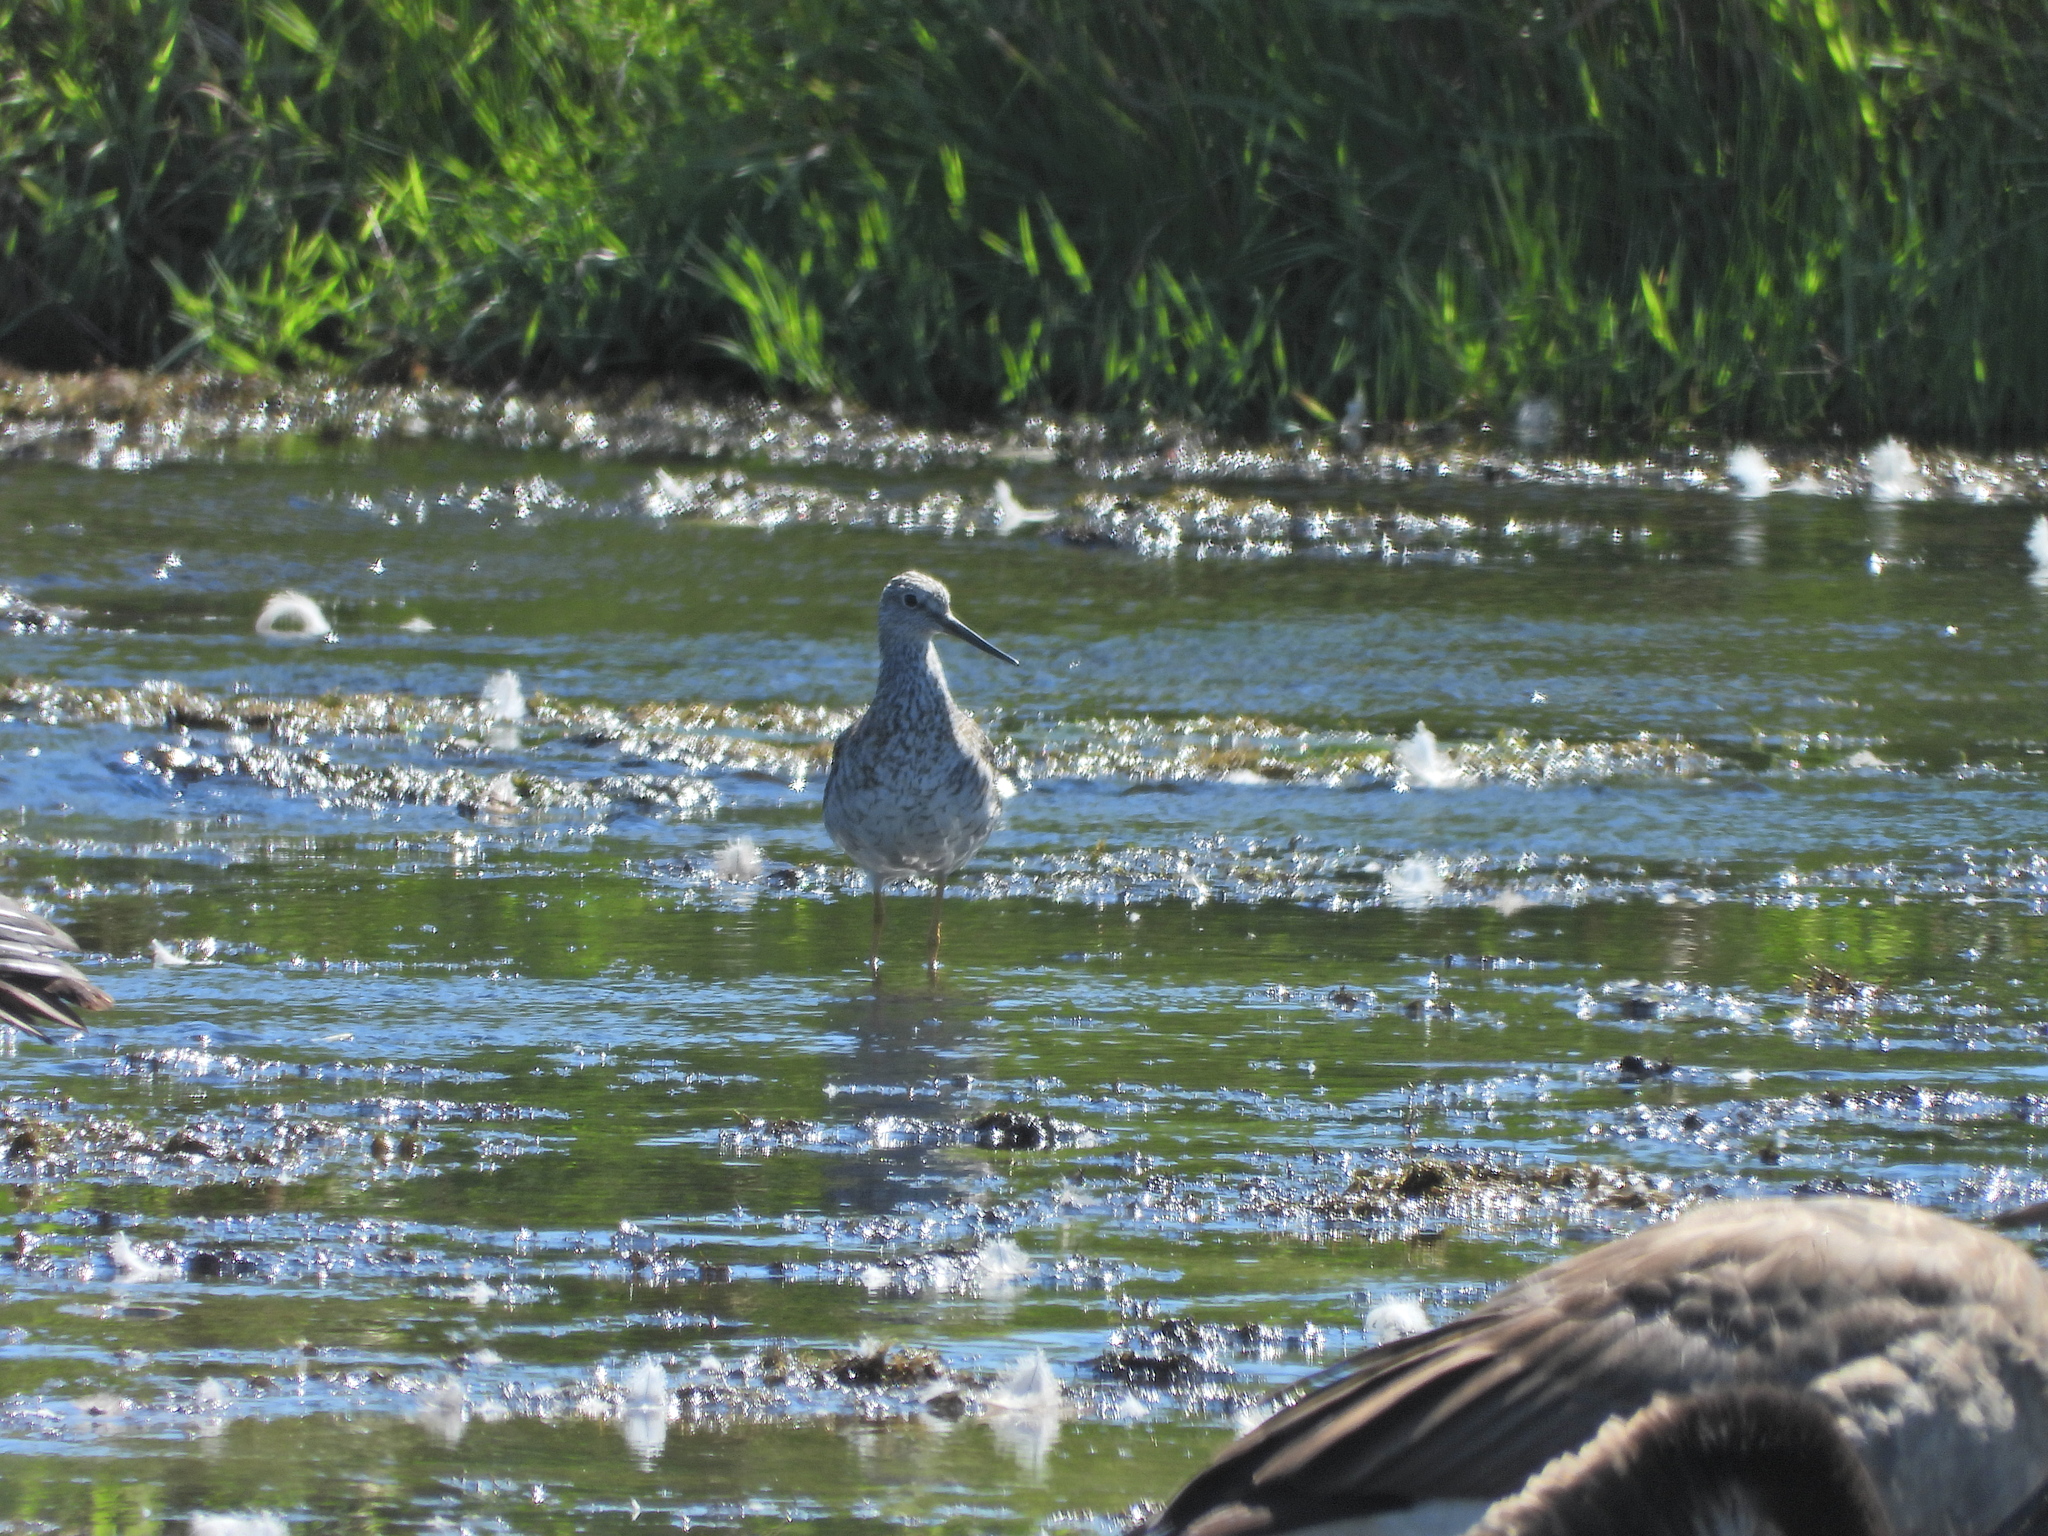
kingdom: Animalia
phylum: Chordata
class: Aves
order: Charadriiformes
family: Scolopacidae
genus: Tringa
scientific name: Tringa melanoleuca
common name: Greater yellowlegs
